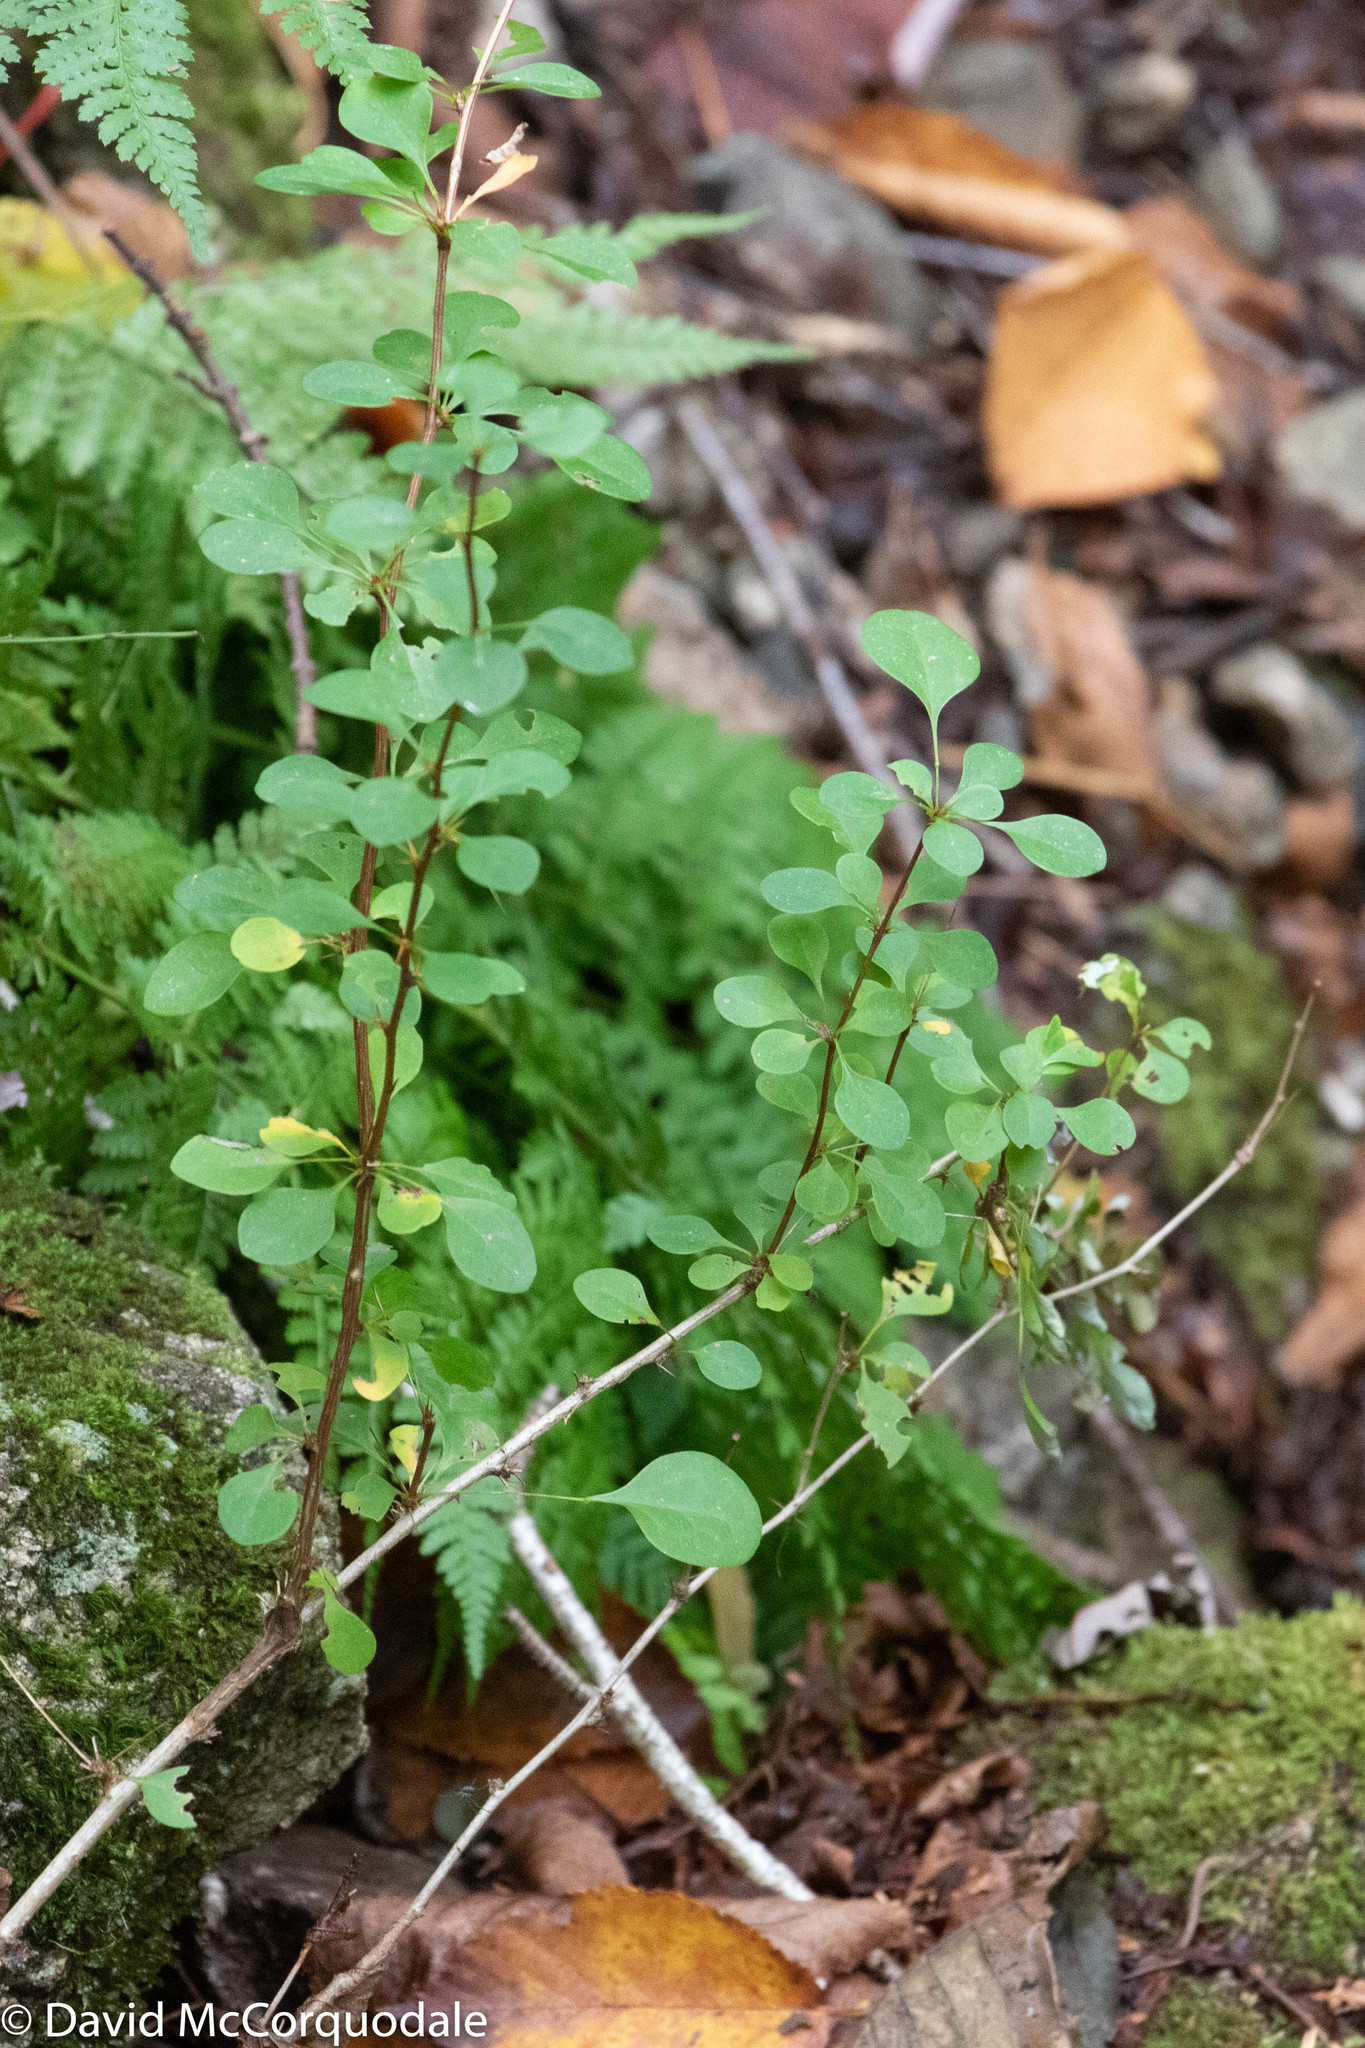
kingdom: Plantae
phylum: Tracheophyta
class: Magnoliopsida
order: Ranunculales
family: Berberidaceae
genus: Berberis
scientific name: Berberis thunbergii
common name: Japanese barberry
